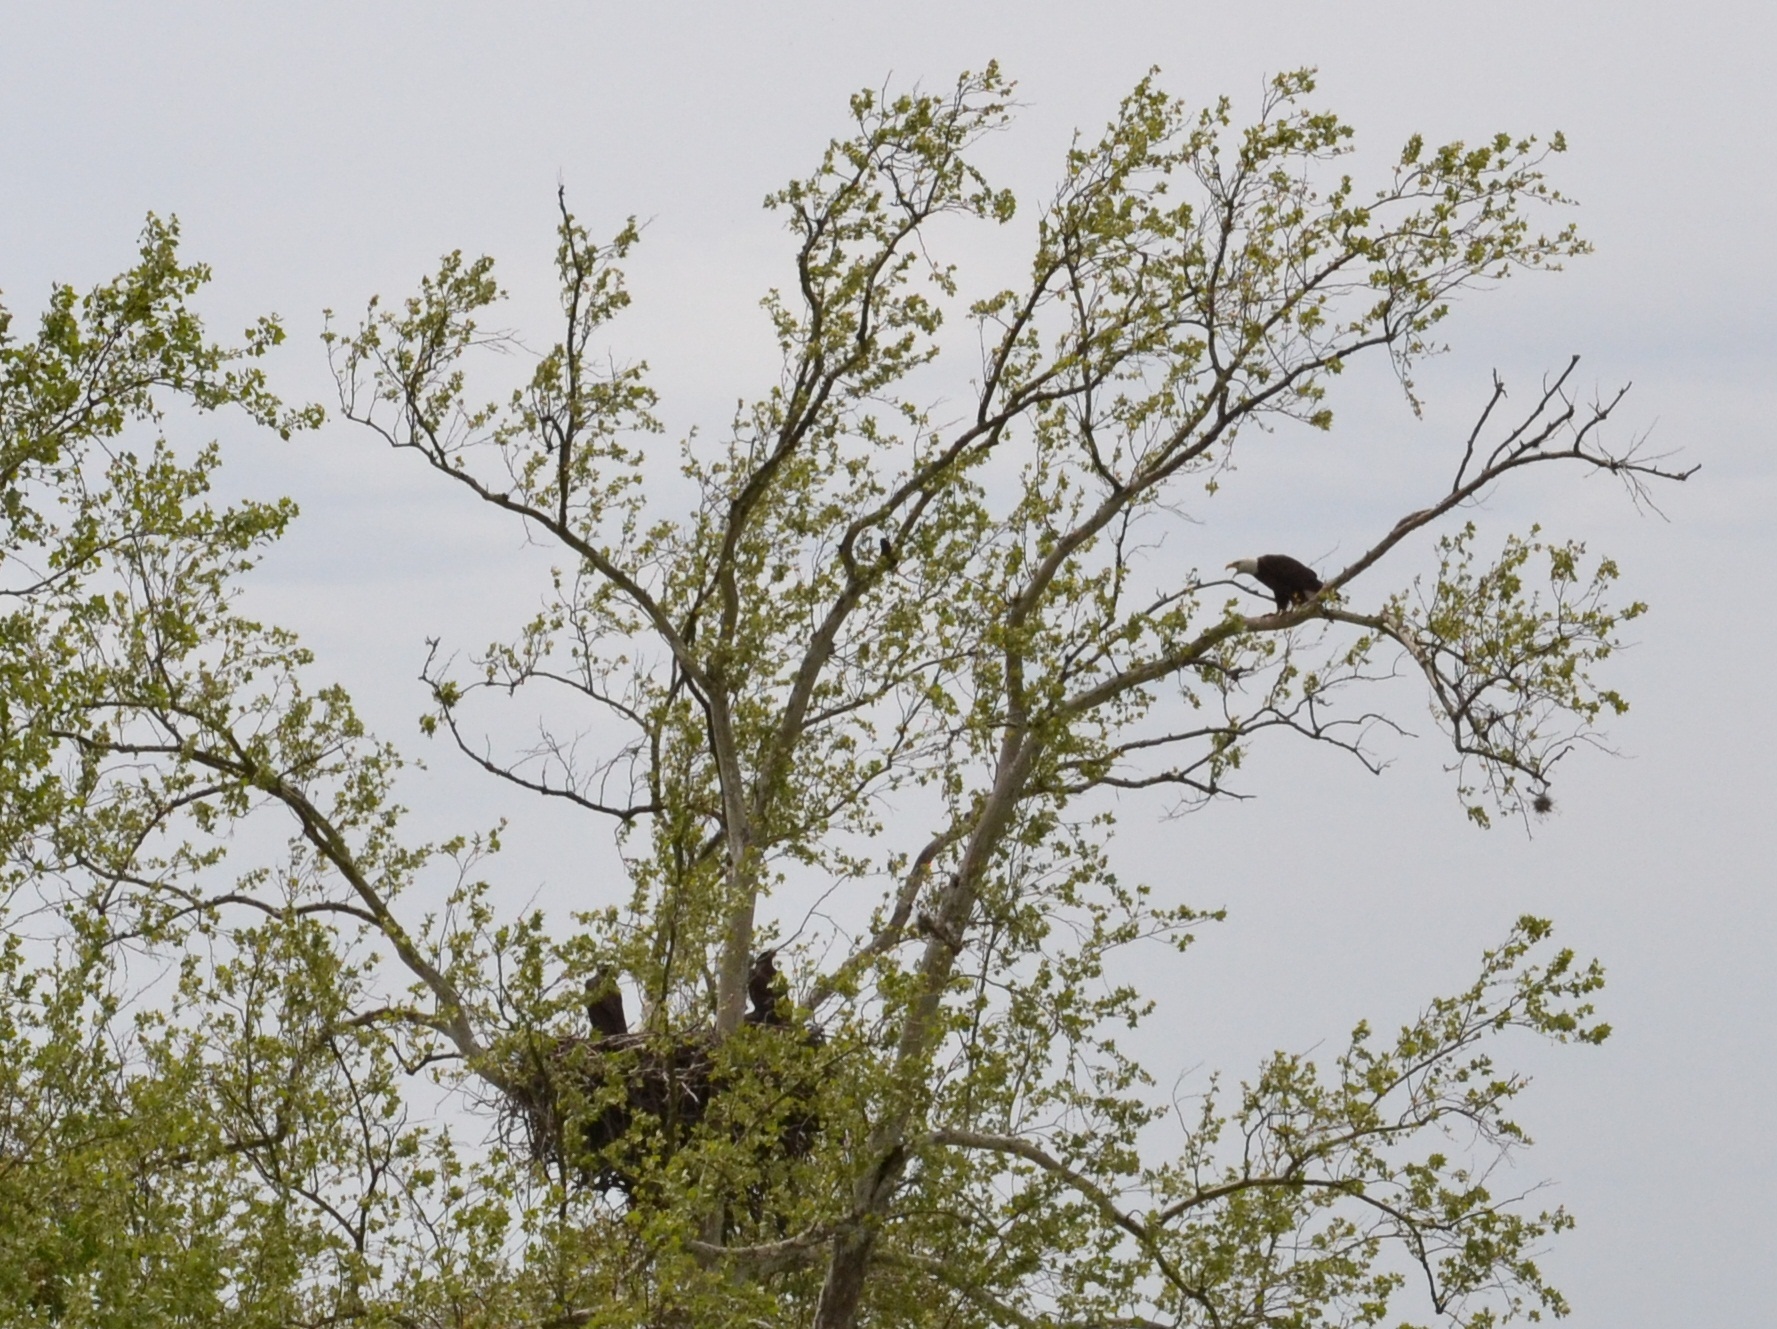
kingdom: Animalia
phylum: Chordata
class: Aves
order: Accipitriformes
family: Accipitridae
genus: Haliaeetus
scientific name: Haliaeetus leucocephalus
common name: Bald eagle
